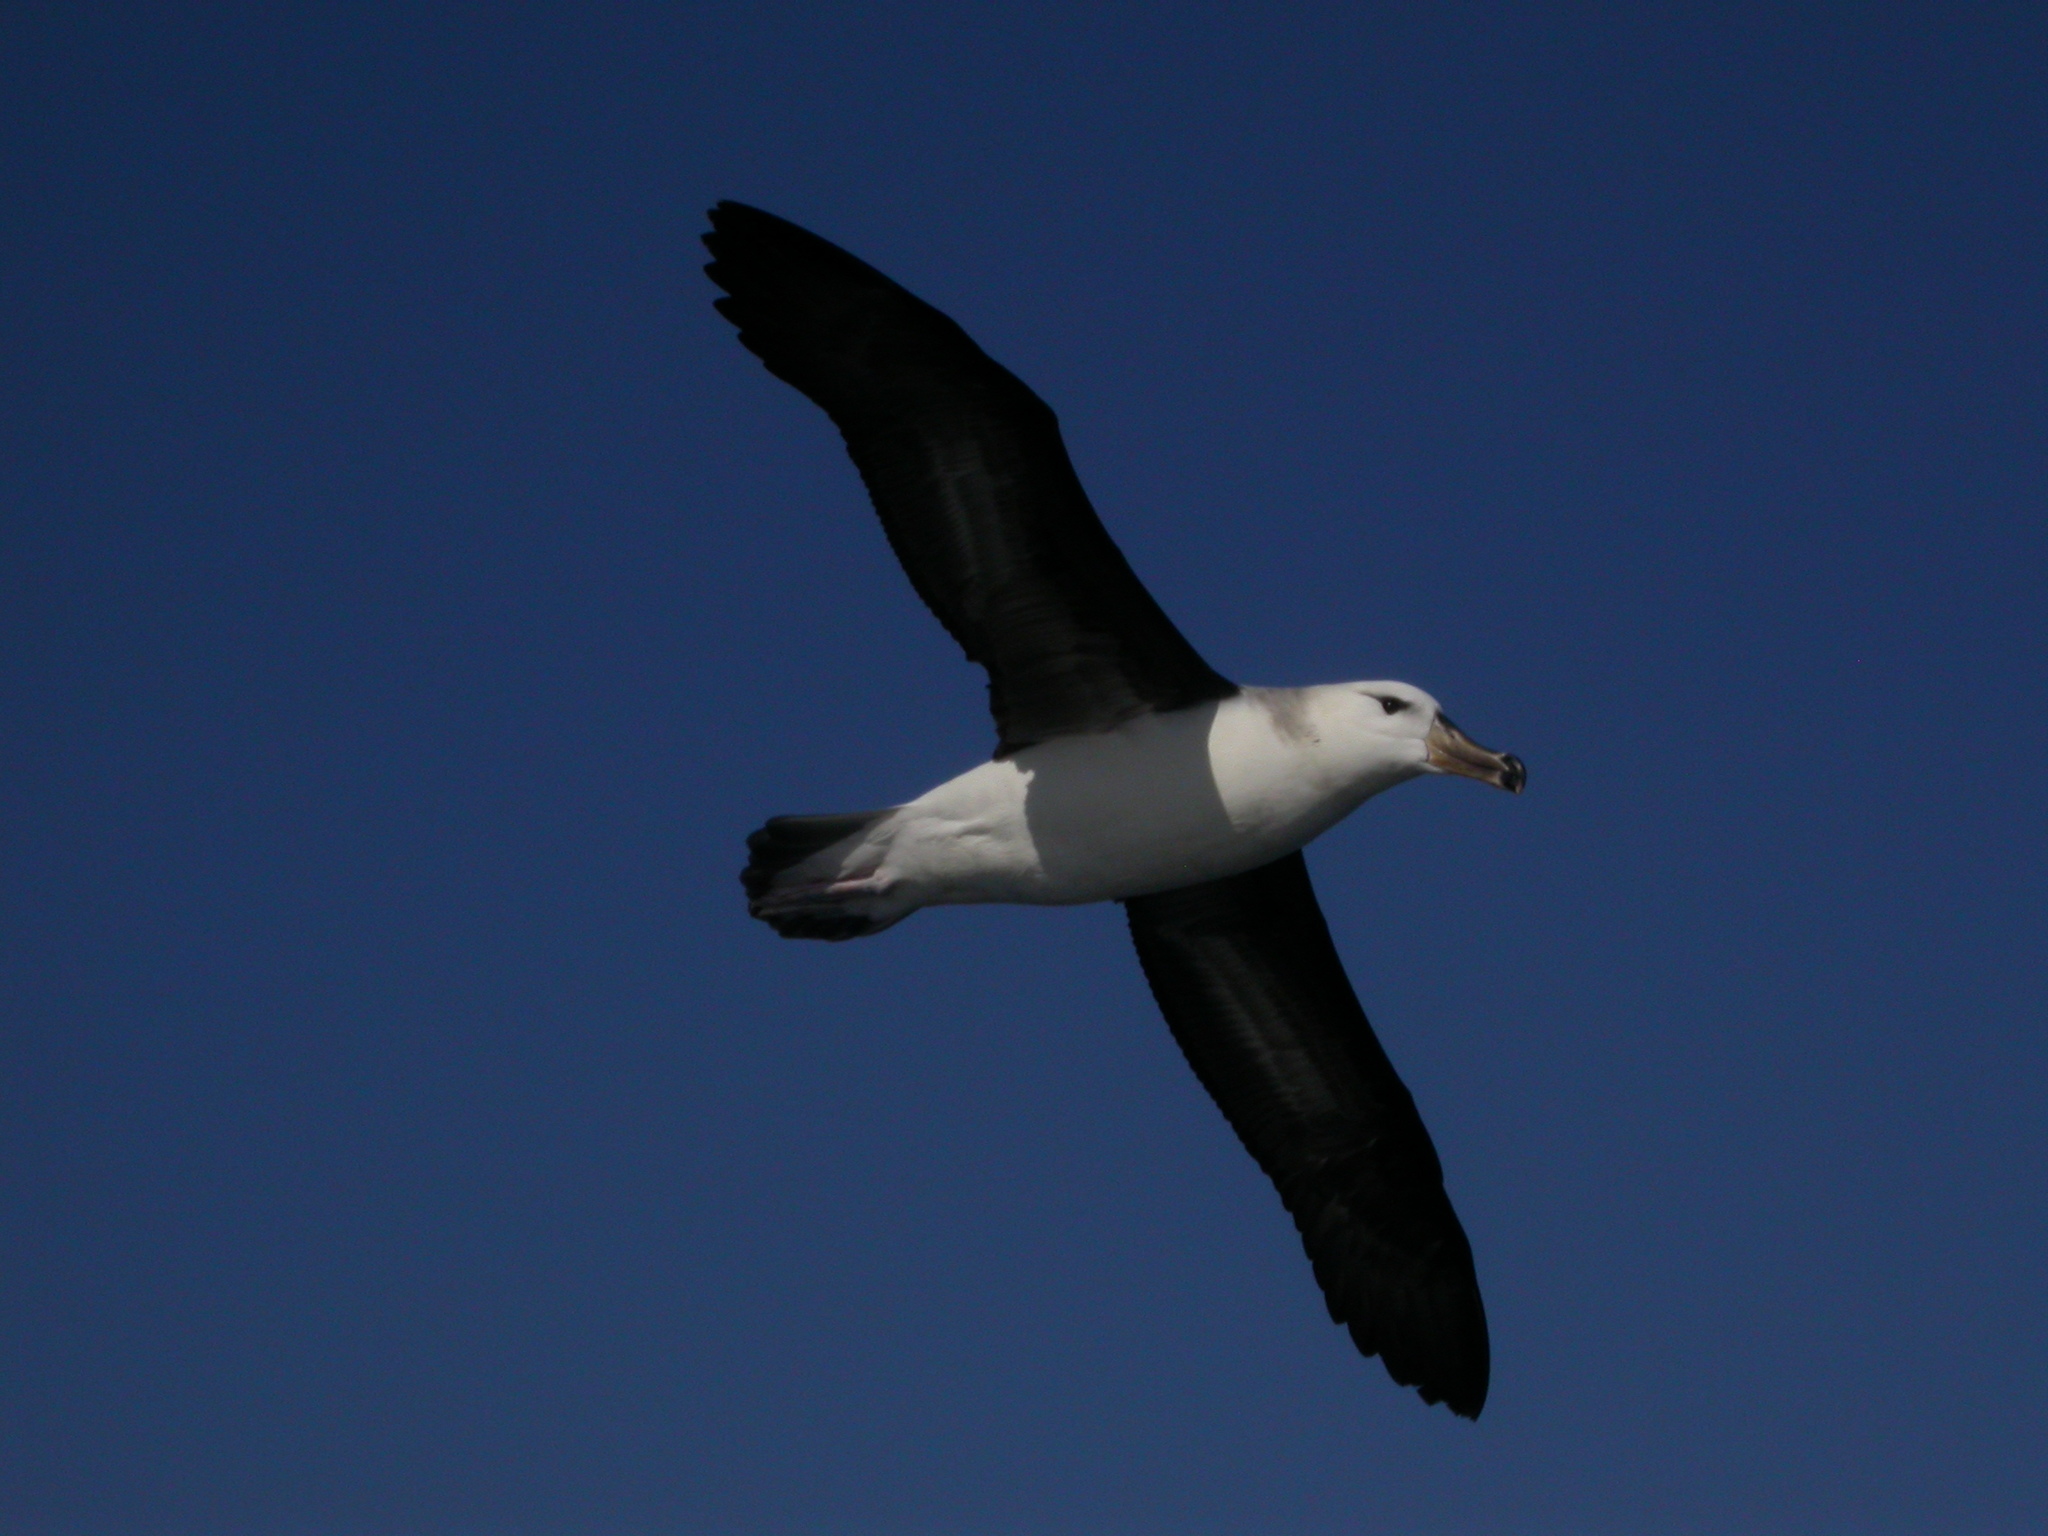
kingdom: Animalia
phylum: Chordata
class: Aves
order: Procellariiformes
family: Diomedeidae
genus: Thalassarche
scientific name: Thalassarche melanophris
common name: Black-browed albatross
